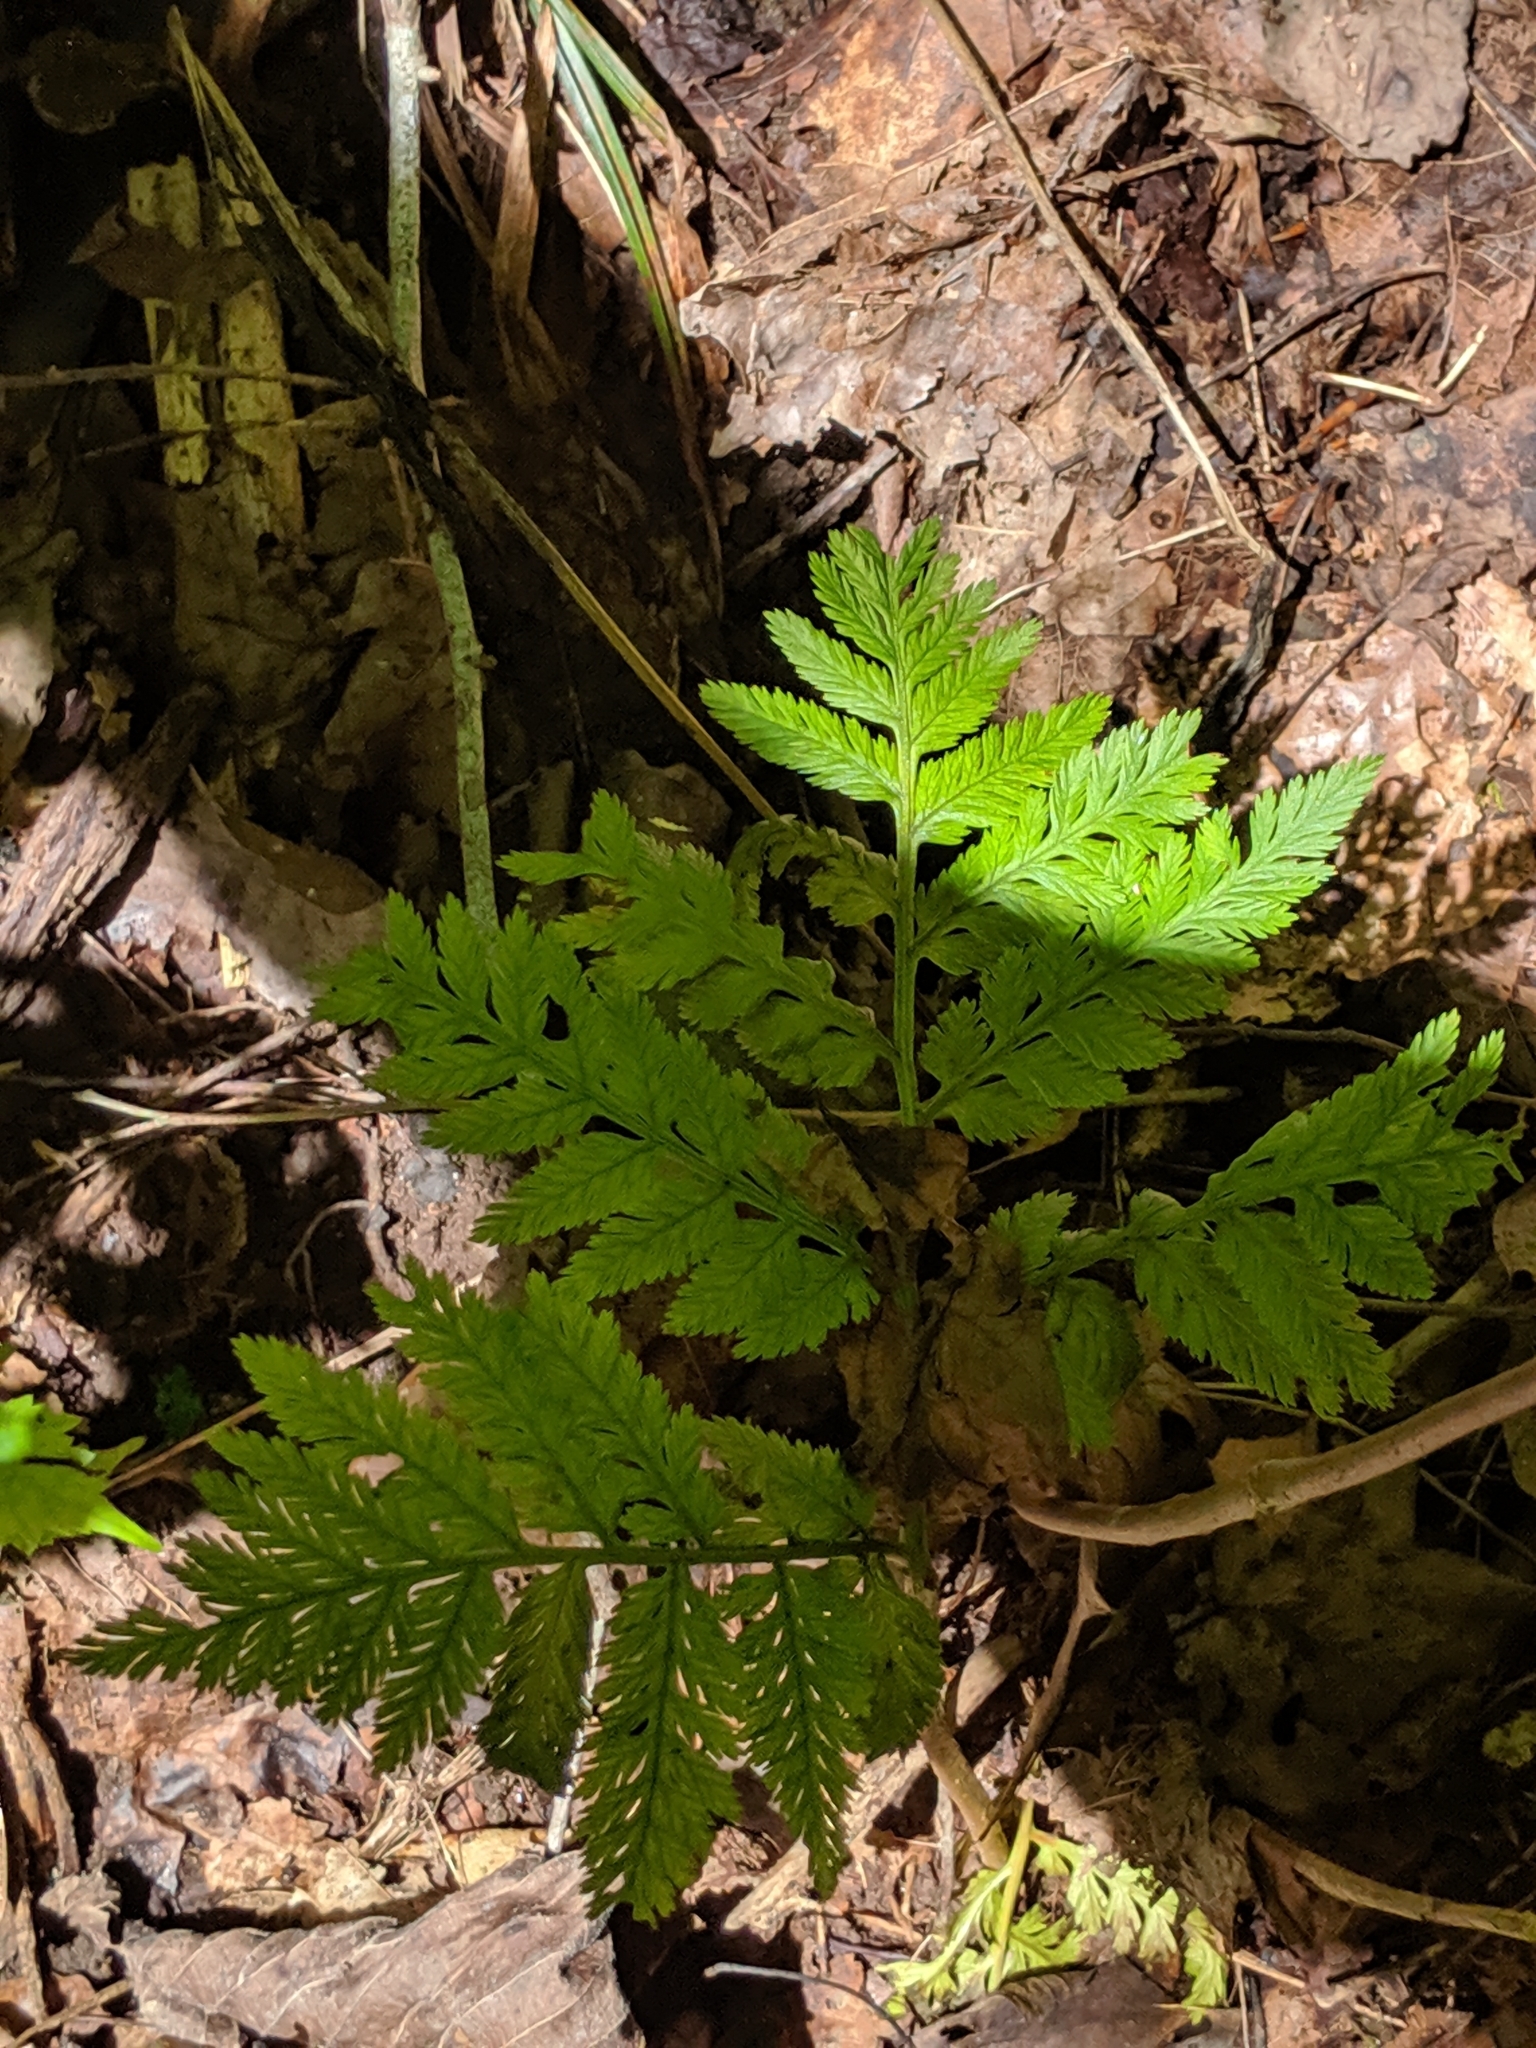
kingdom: Plantae
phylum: Tracheophyta
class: Polypodiopsida
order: Ophioglossales
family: Ophioglossaceae
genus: Botrypus
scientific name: Botrypus virginianus
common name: Common grapefern
